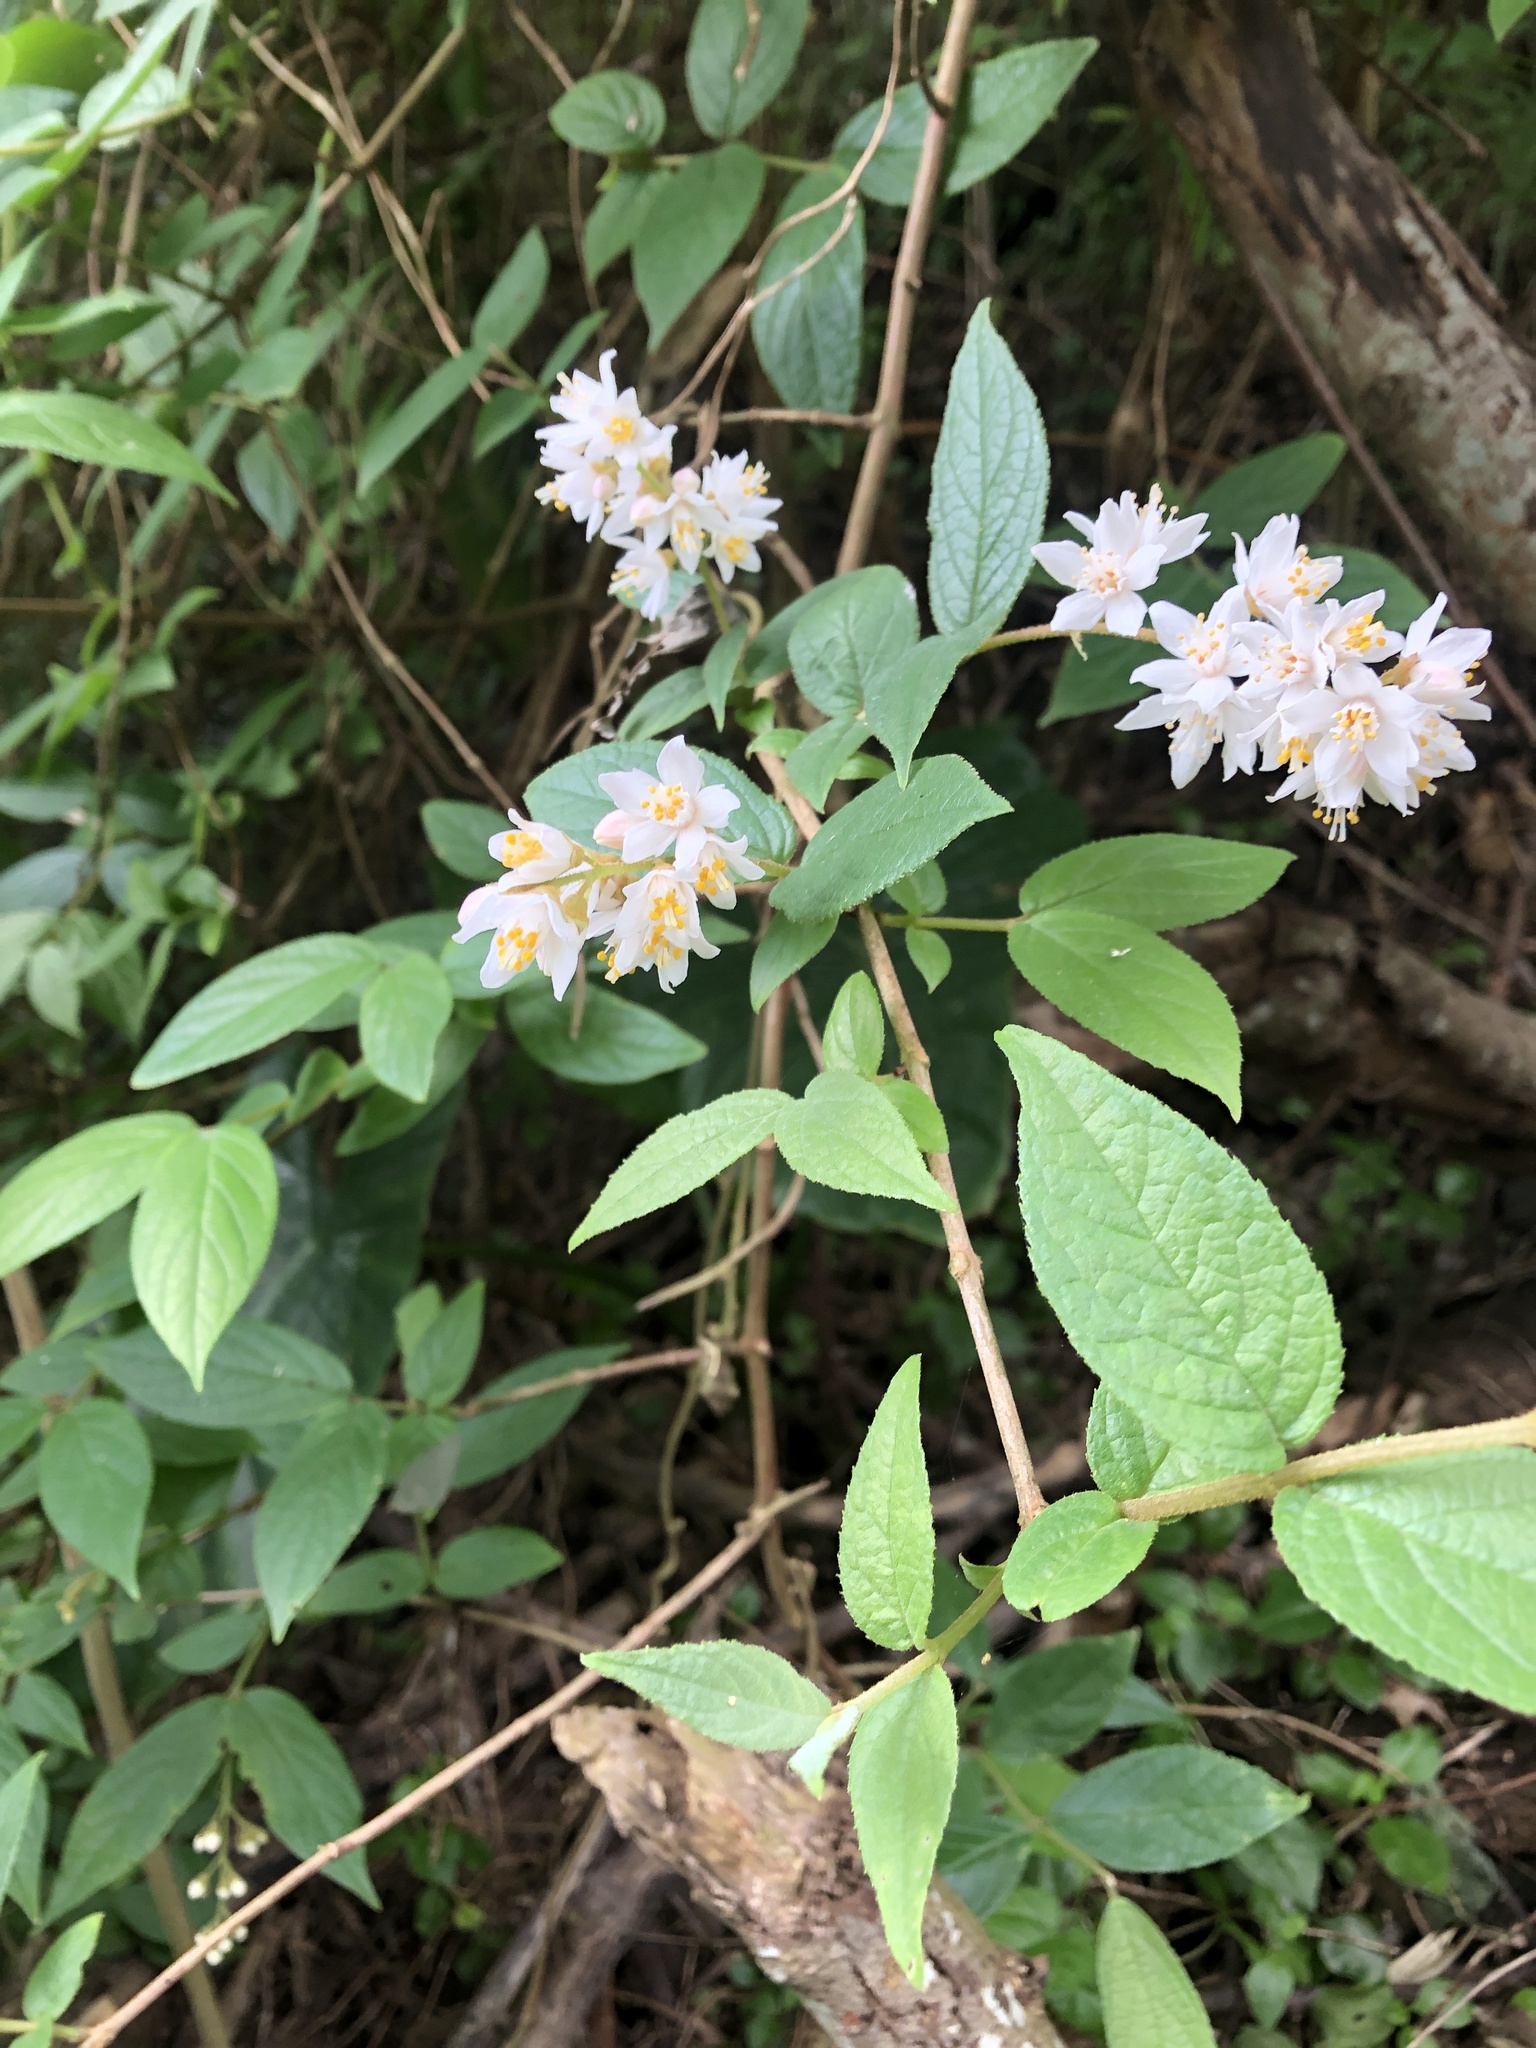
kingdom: Plantae
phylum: Tracheophyta
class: Magnoliopsida
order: Cornales
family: Hydrangeaceae
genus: Deutzia
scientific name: Deutzia pulchra
